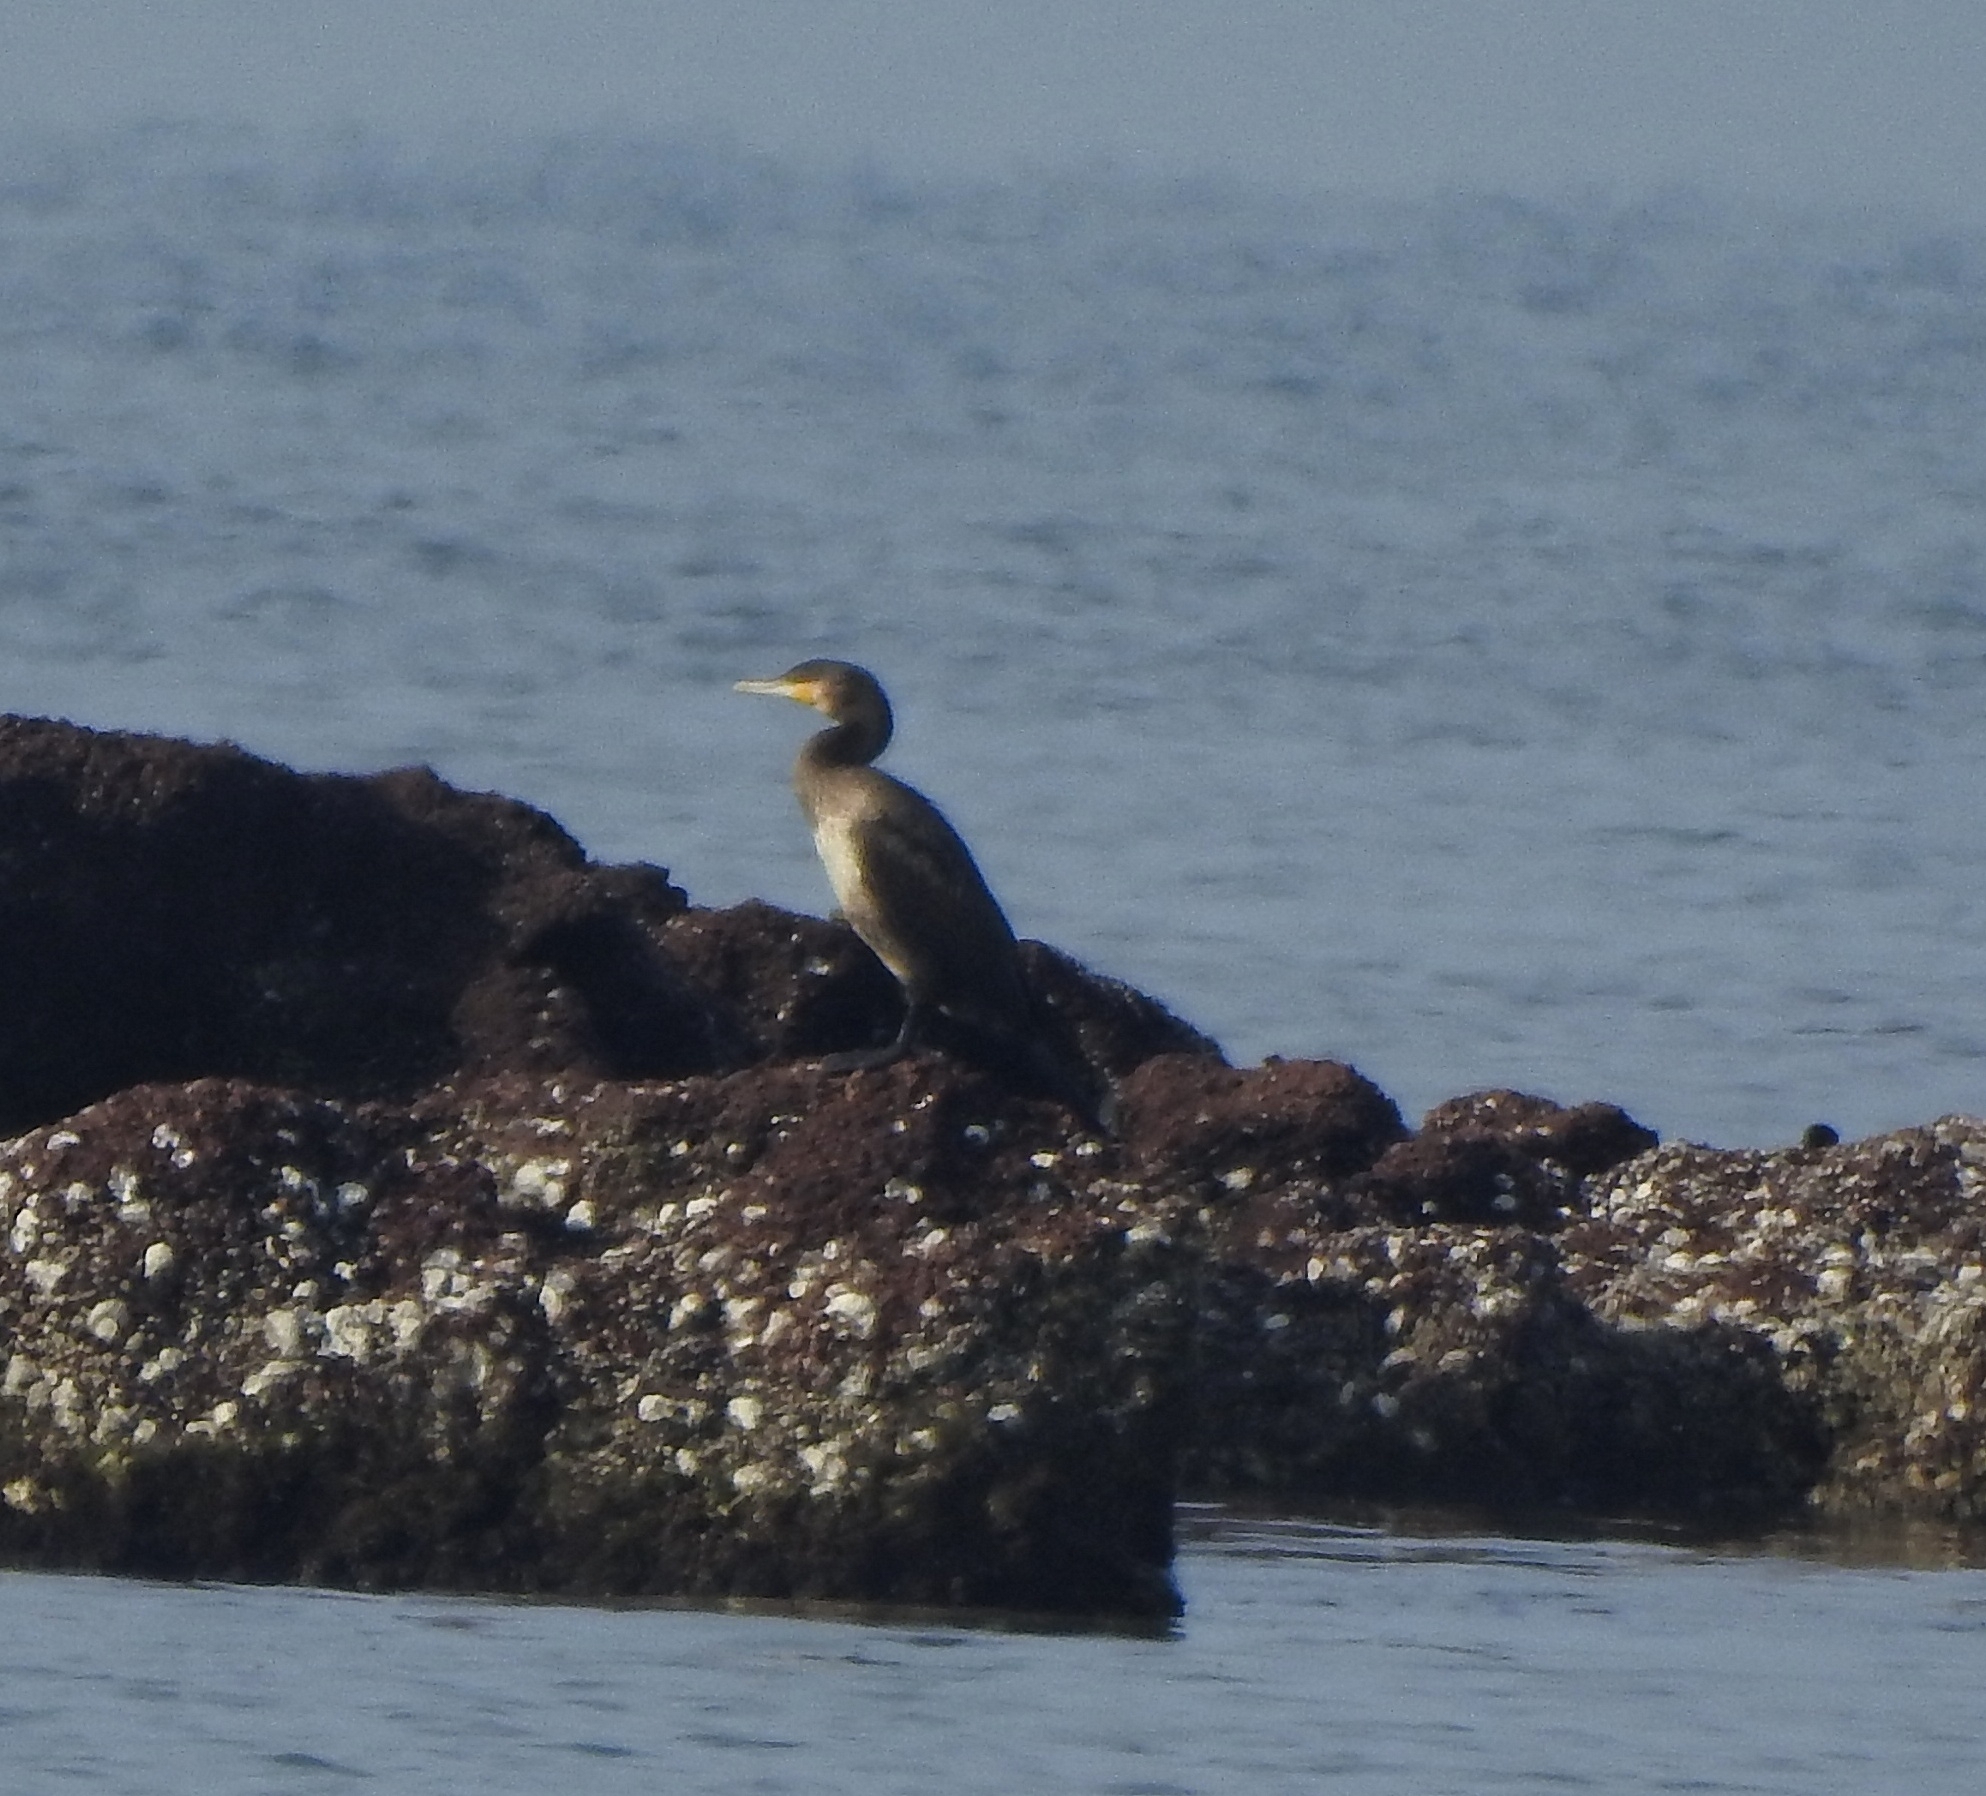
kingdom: Animalia
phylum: Chordata
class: Aves
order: Suliformes
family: Phalacrocoracidae
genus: Phalacrocorax
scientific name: Phalacrocorax carbo
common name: Great cormorant
